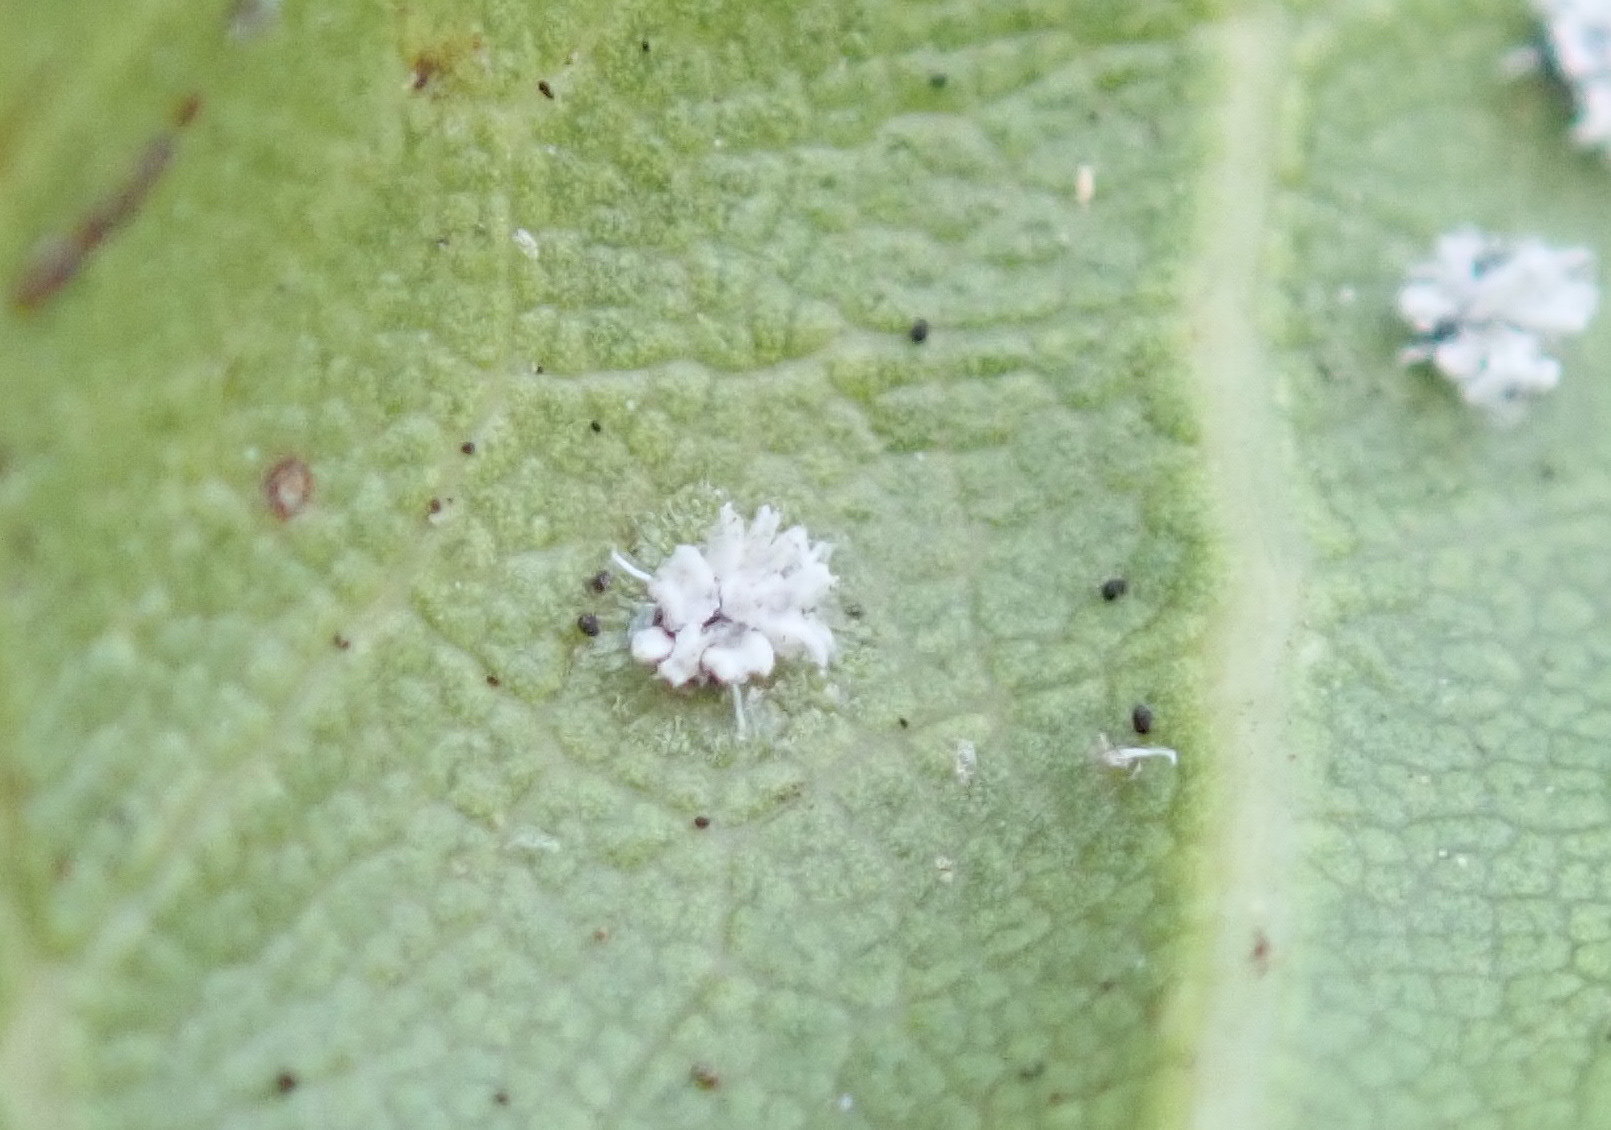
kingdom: Animalia
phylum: Arthropoda
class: Insecta
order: Hemiptera
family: Aleyrodidae
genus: Aleuroplatus
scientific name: Aleuroplatus coronata
